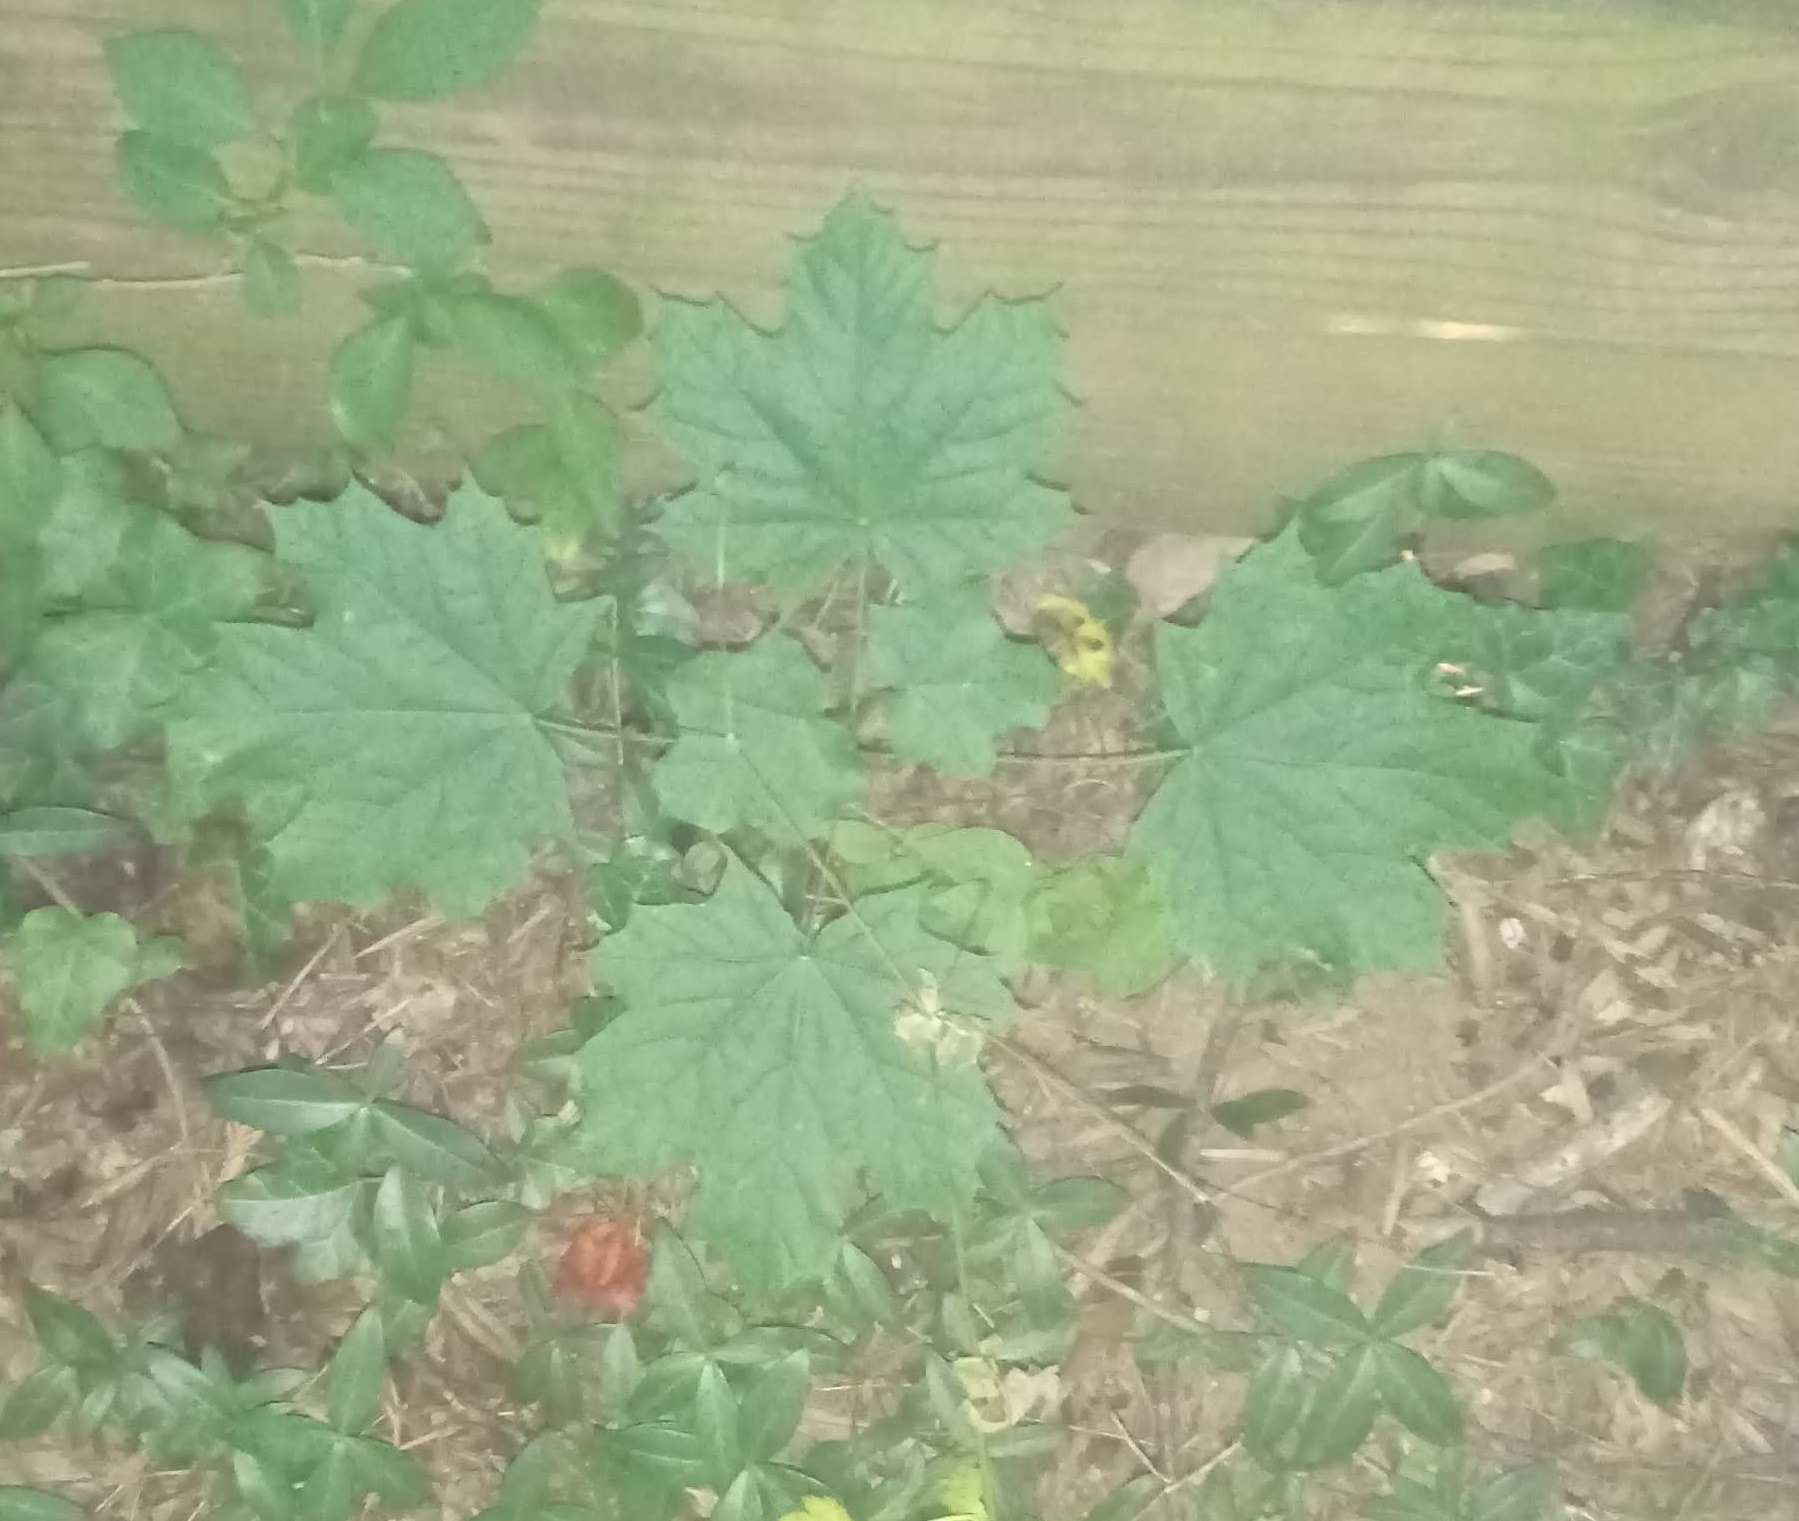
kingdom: Plantae
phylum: Tracheophyta
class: Magnoliopsida
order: Sapindales
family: Sapindaceae
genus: Acer
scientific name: Acer platanoides
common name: Norway maple
